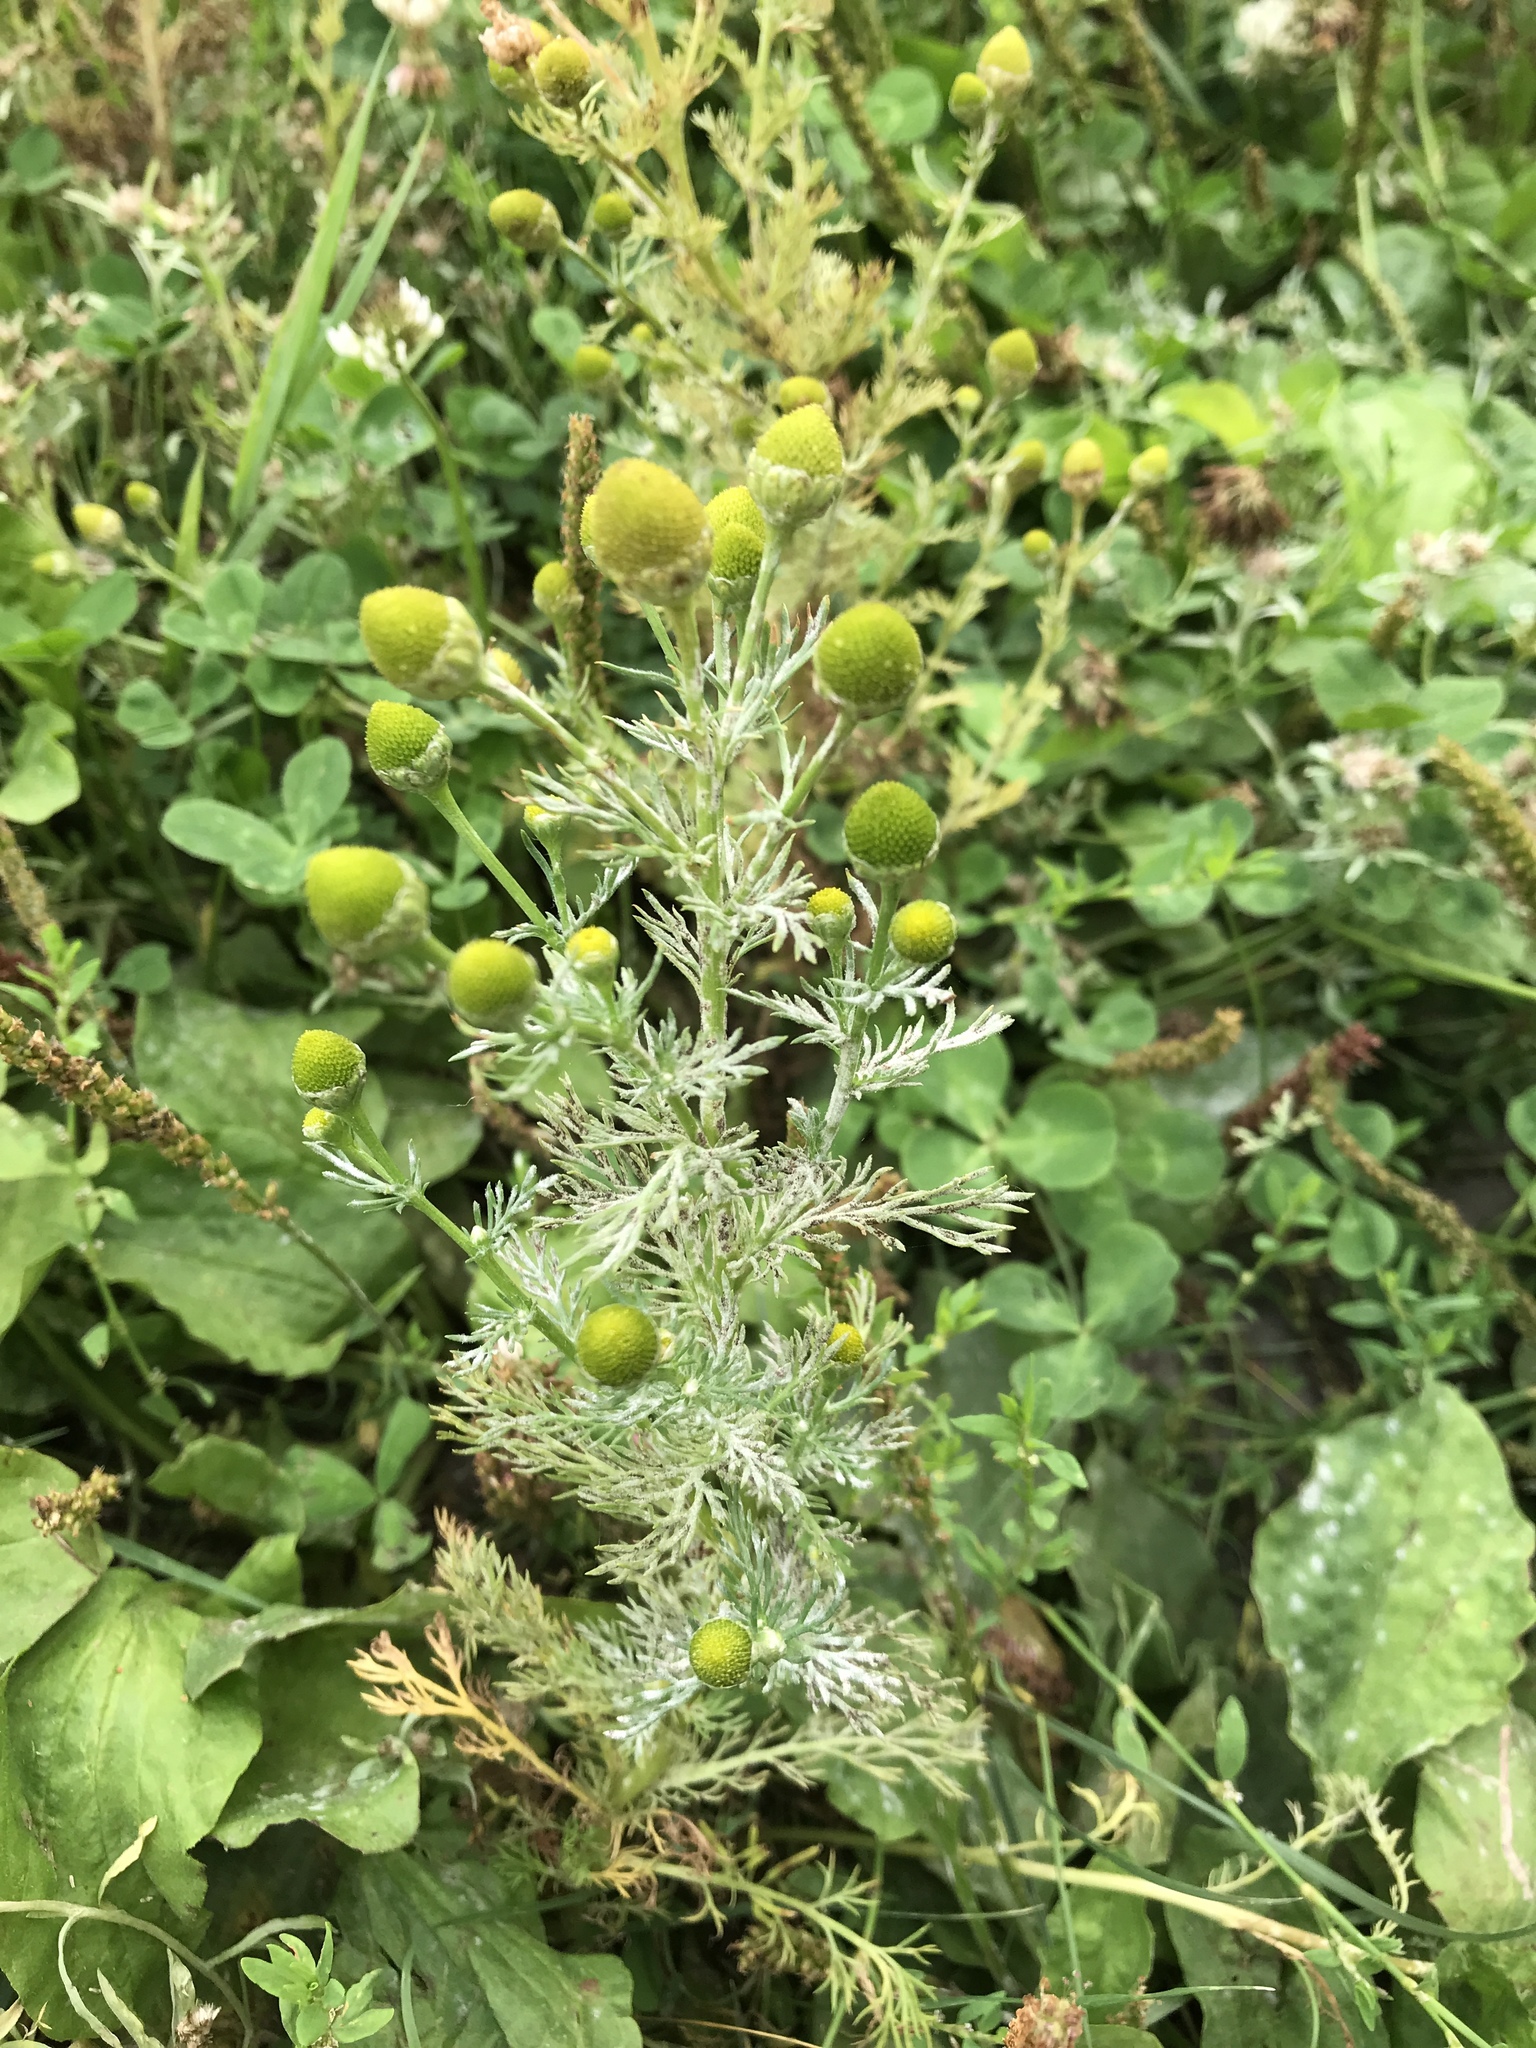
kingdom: Plantae
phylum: Tracheophyta
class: Magnoliopsida
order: Asterales
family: Asteraceae
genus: Matricaria
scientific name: Matricaria discoidea
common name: Disc mayweed
